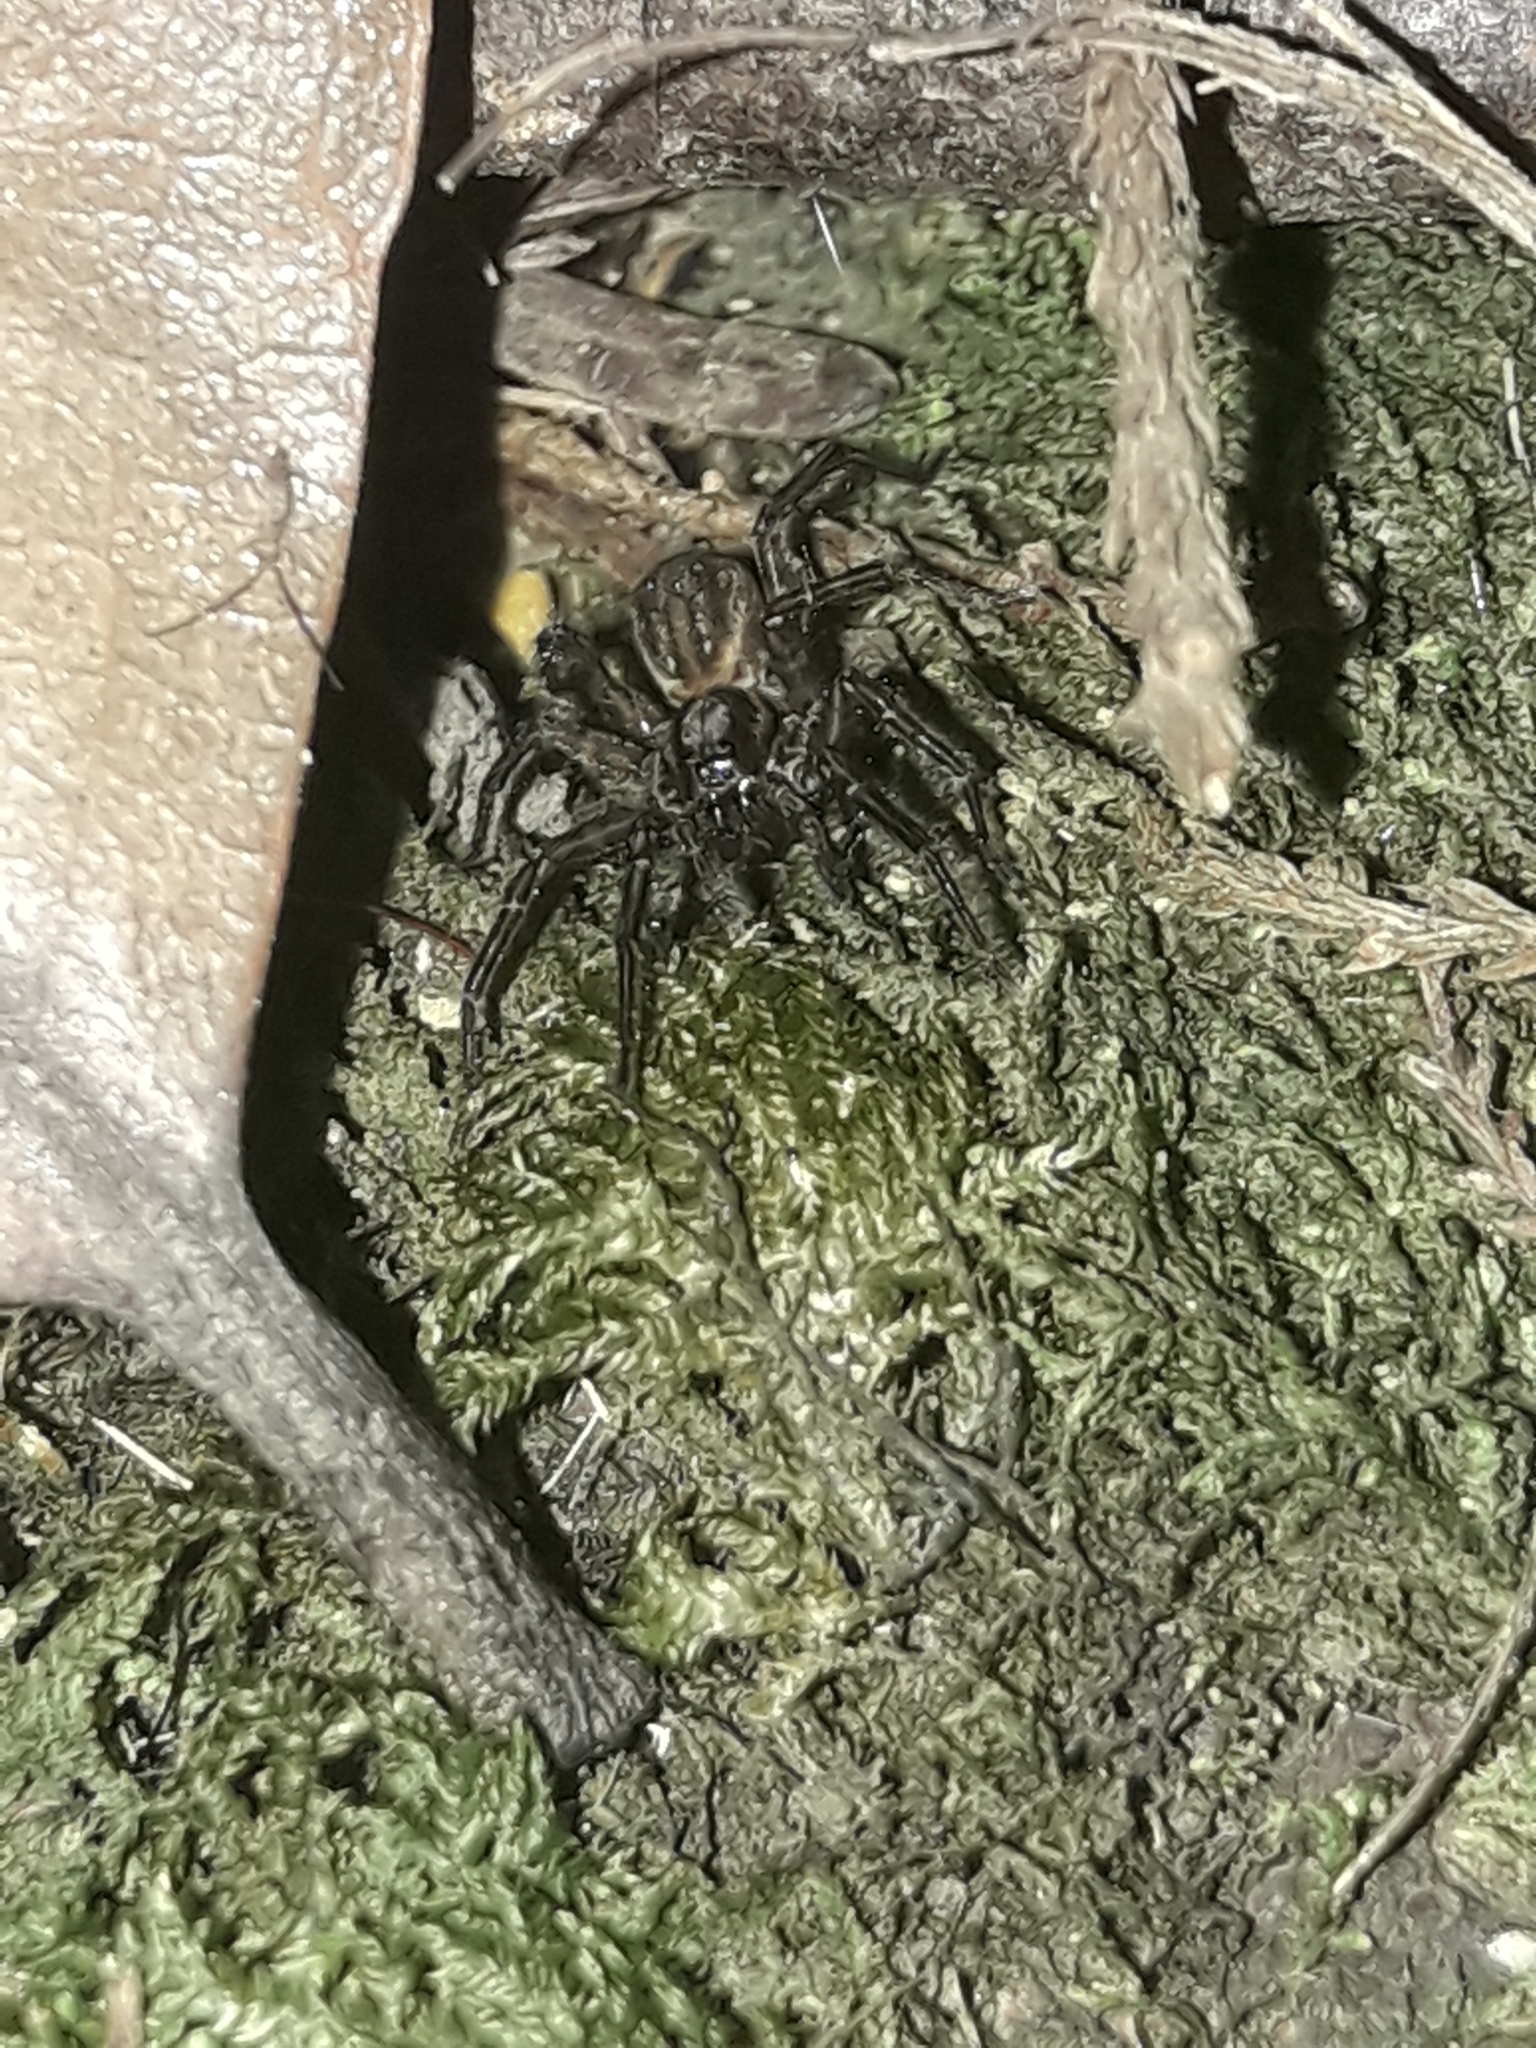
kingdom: Animalia
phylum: Arthropoda
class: Arachnida
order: Araneae
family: Lycosidae
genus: Allotrochosina
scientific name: Allotrochosina schauinslandi
